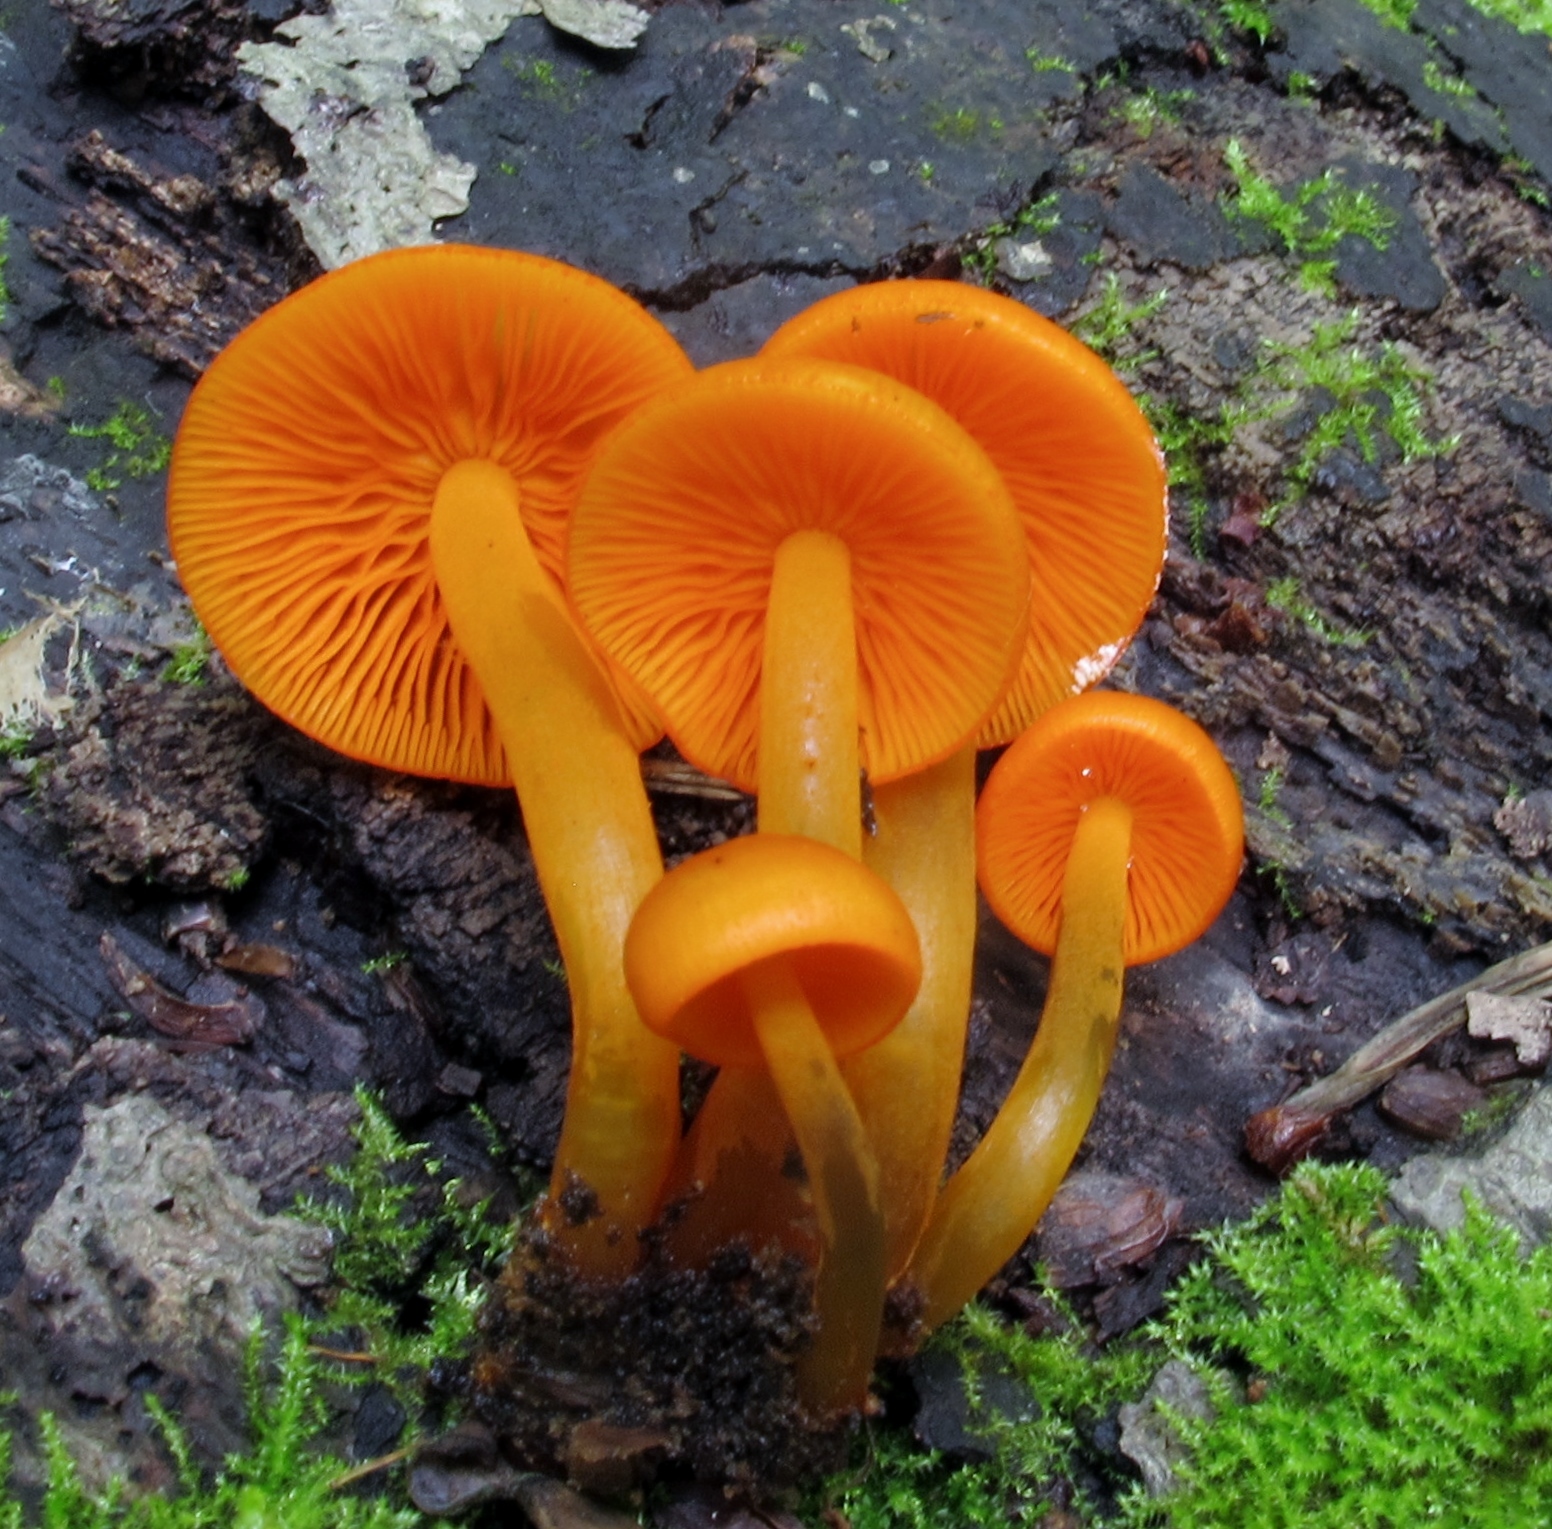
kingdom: Fungi
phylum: Basidiomycota
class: Agaricomycetes
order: Agaricales
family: Mycenaceae
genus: Mycena
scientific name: Mycena leaiana
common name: Orange mycena
